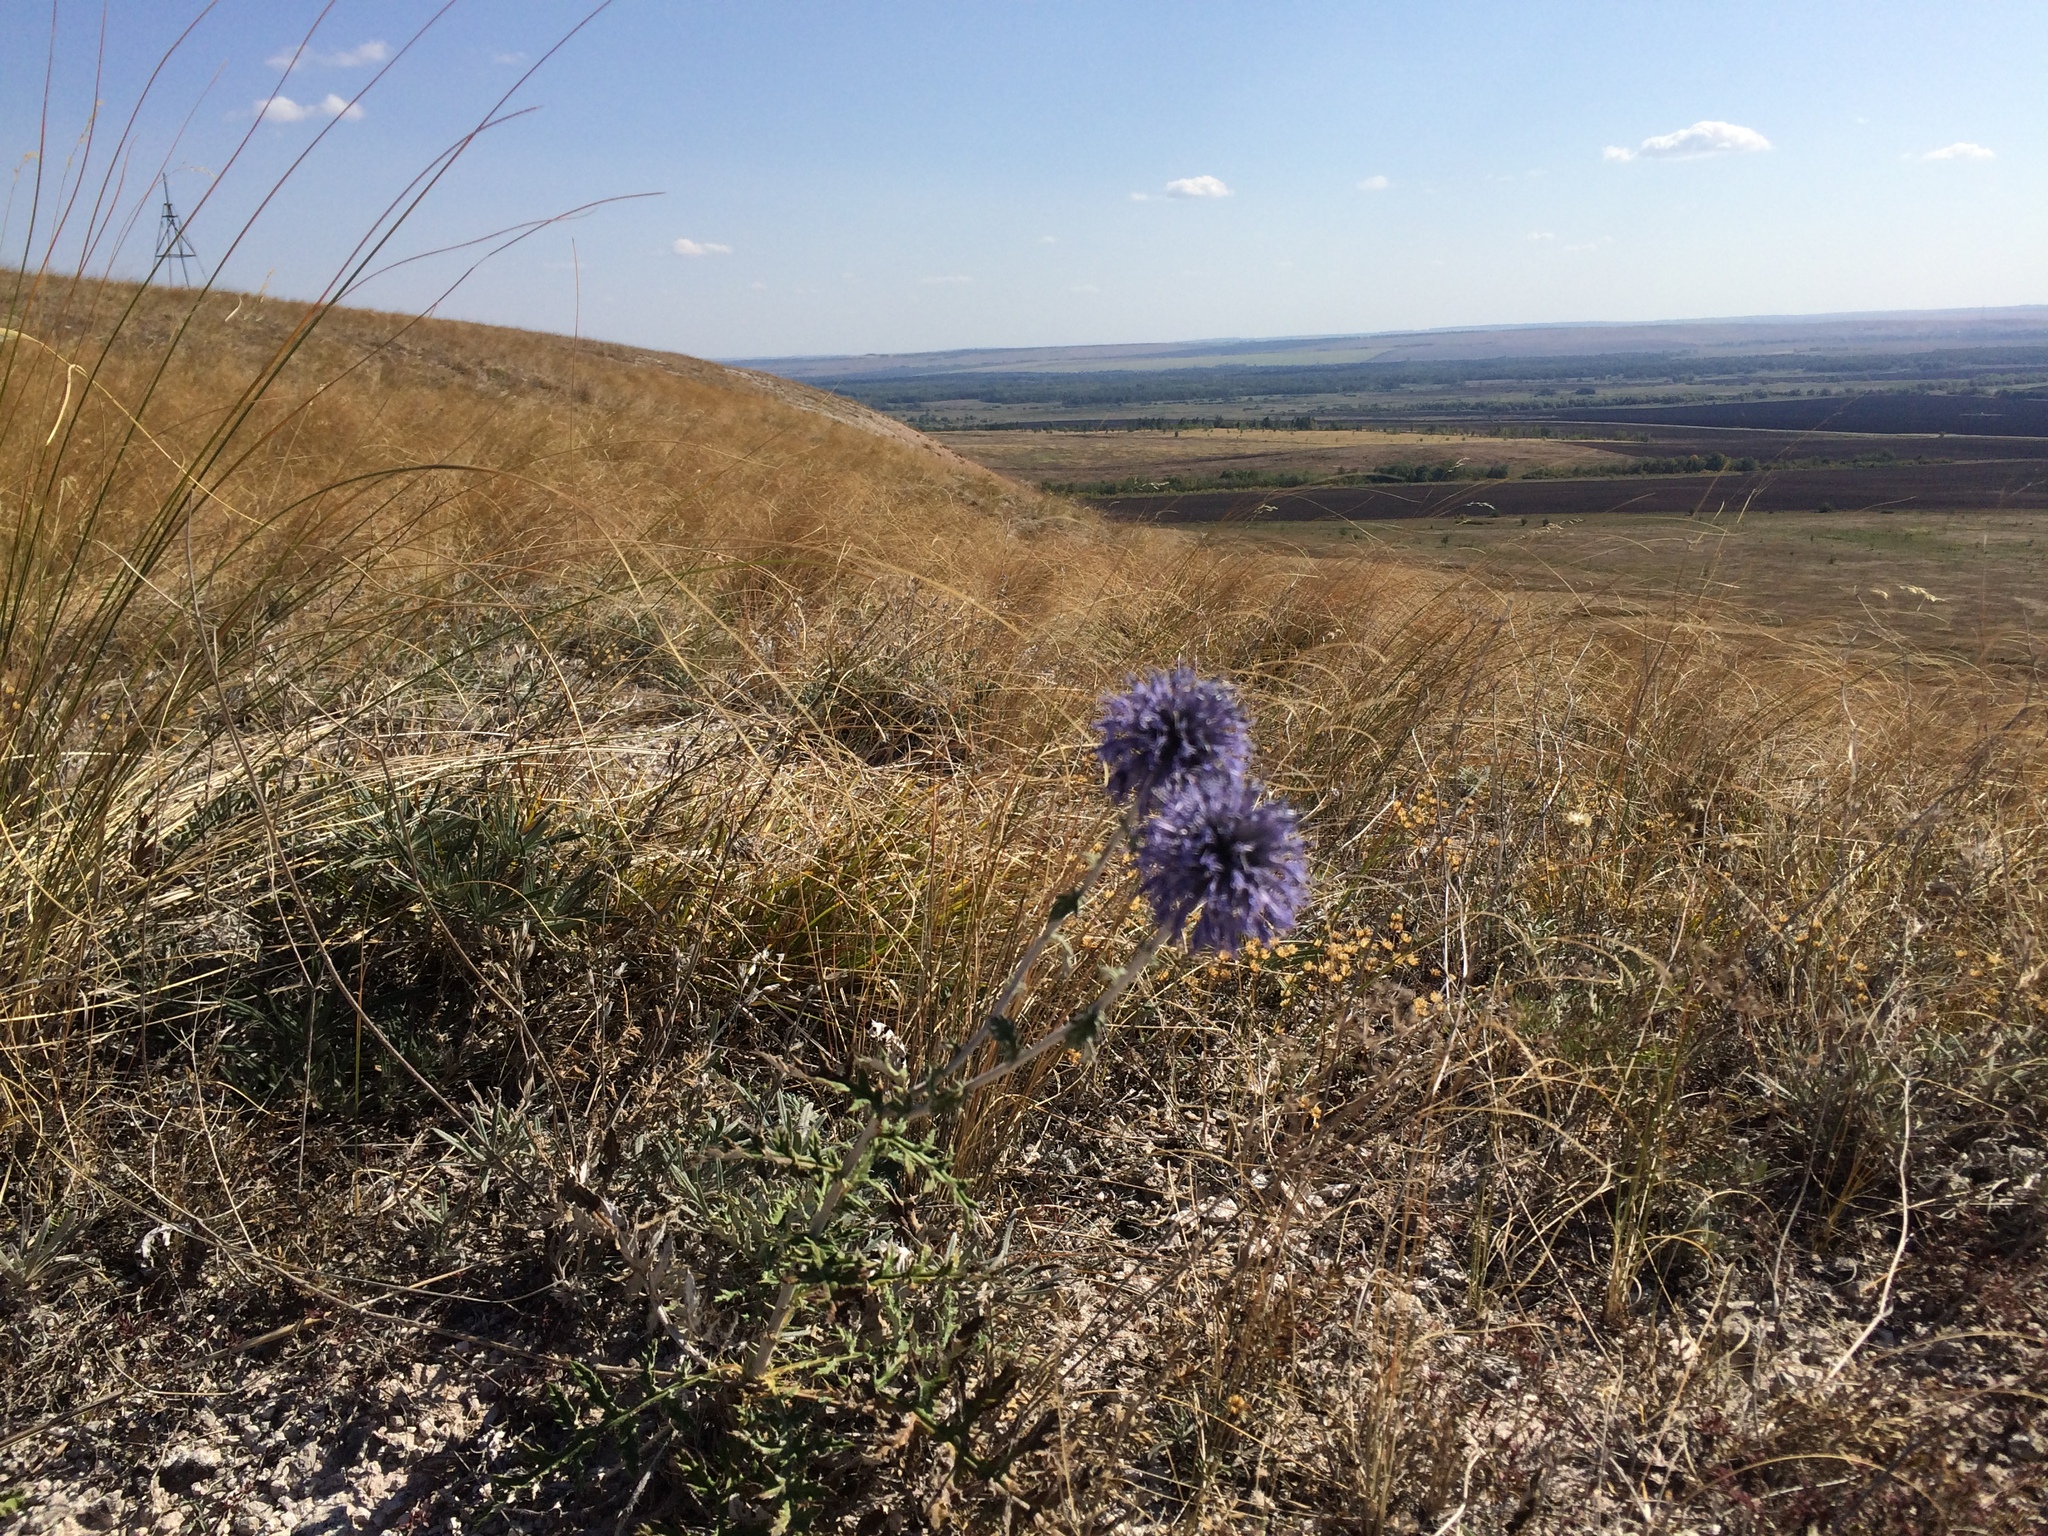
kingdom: Plantae
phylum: Tracheophyta
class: Magnoliopsida
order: Asterales
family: Asteraceae
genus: Echinops
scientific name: Echinops saksonovii
